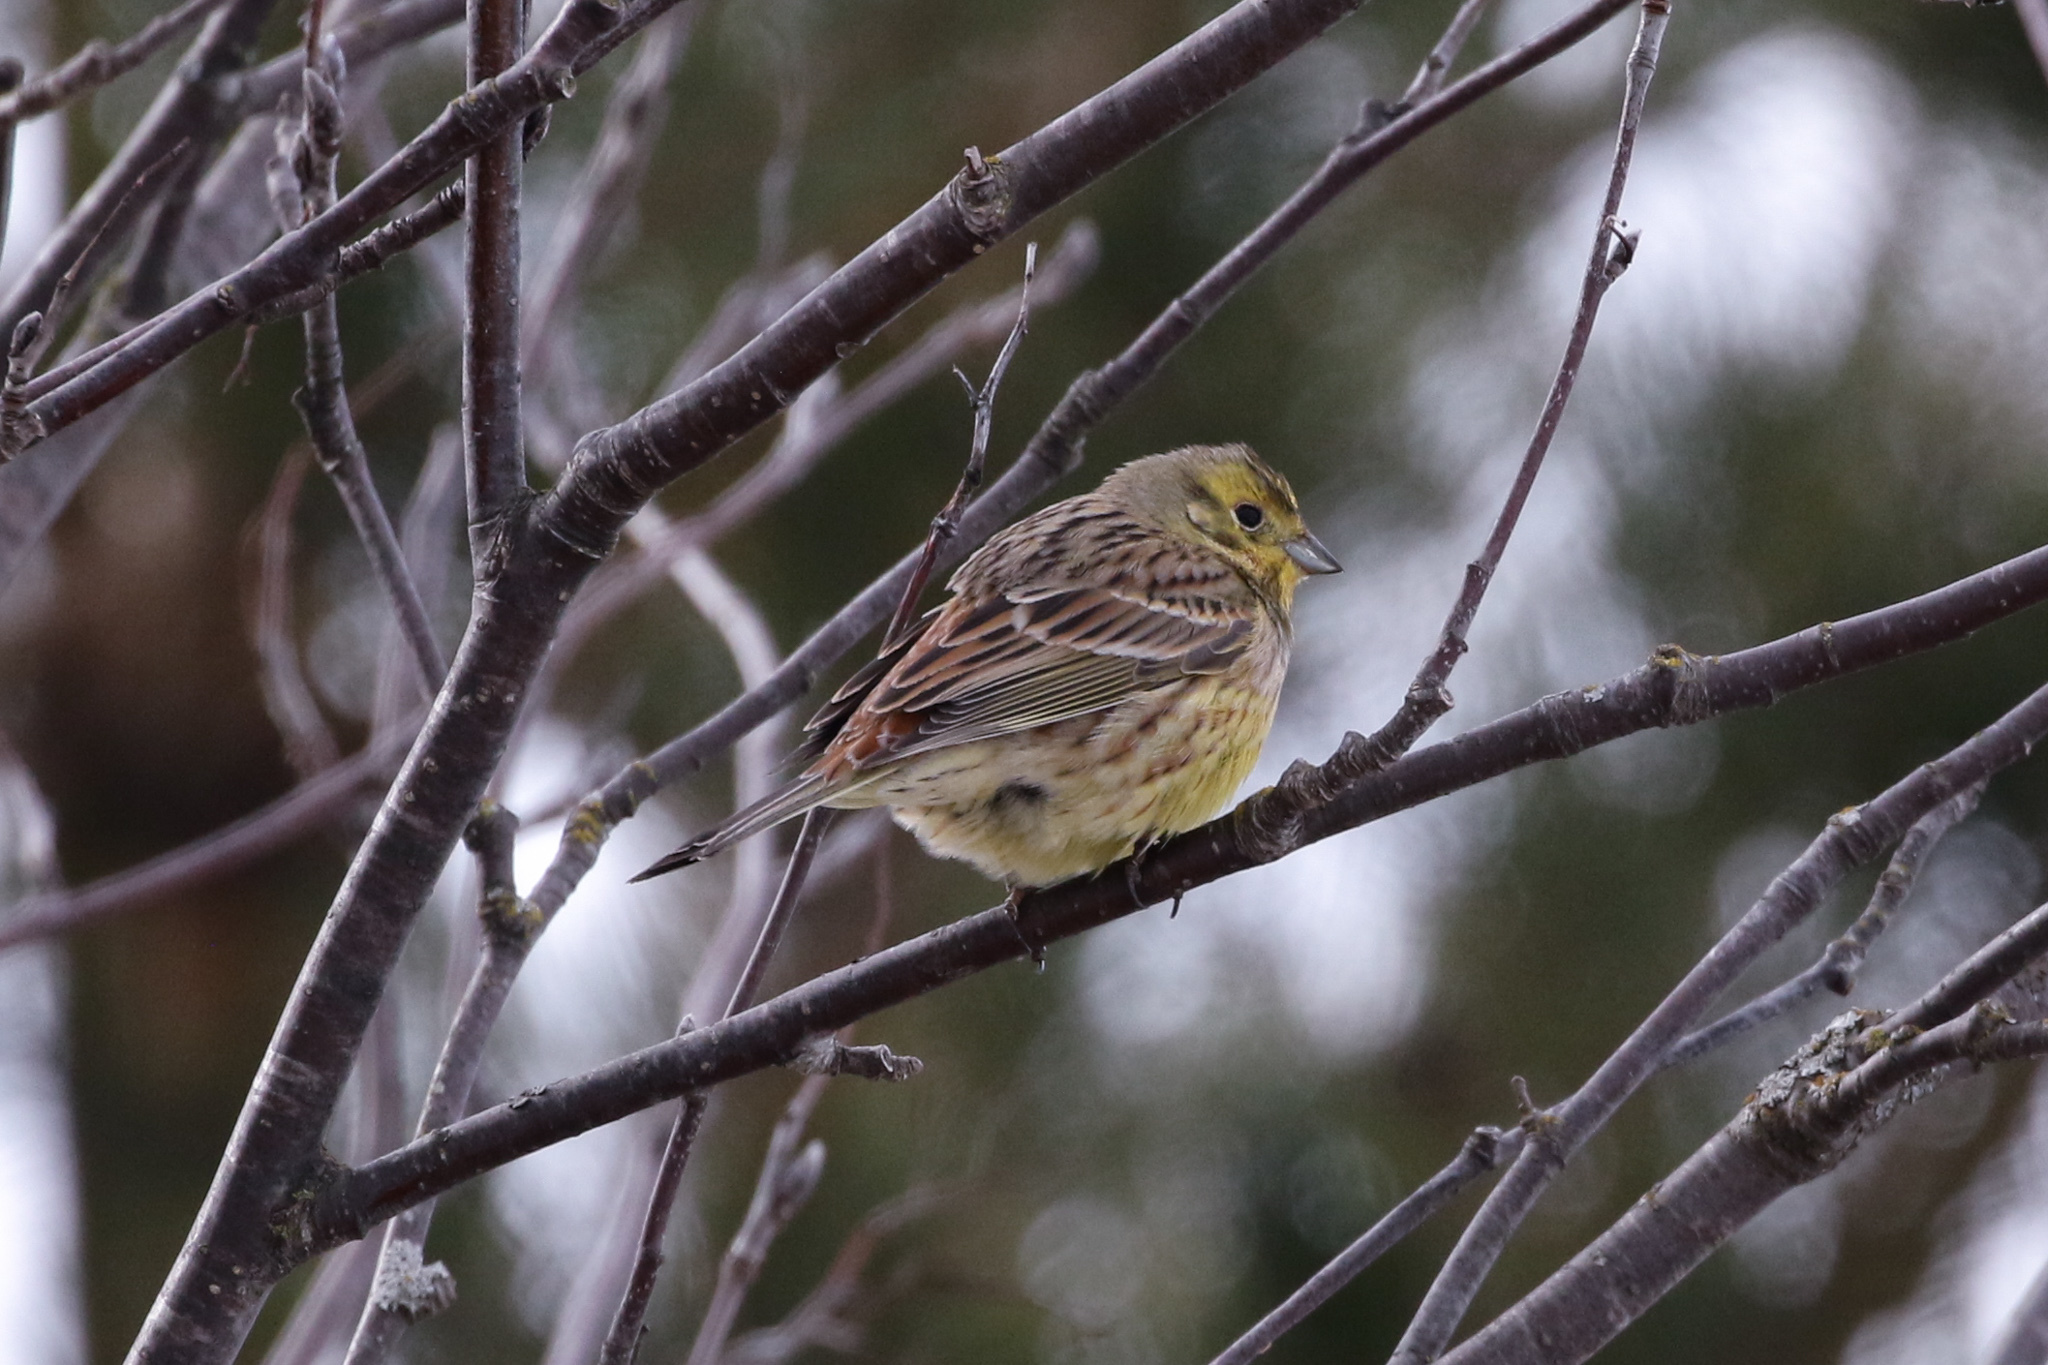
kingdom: Animalia
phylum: Chordata
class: Aves
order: Passeriformes
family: Emberizidae
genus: Emberiza
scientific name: Emberiza citrinella
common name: Yellowhammer
